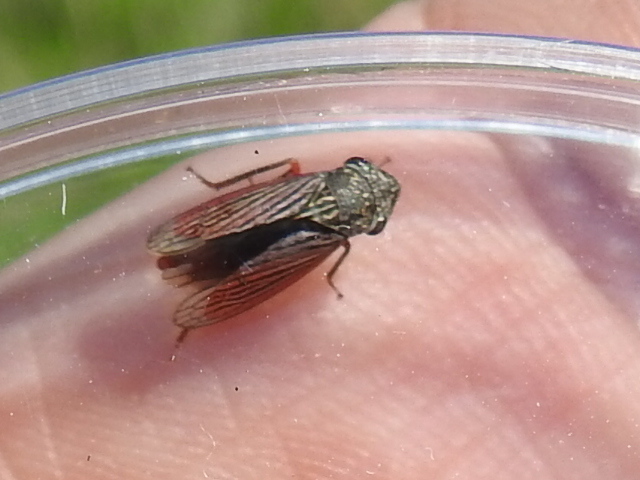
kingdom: Animalia
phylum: Arthropoda
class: Insecta
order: Hemiptera
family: Cicadellidae
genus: Cuerna
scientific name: Cuerna costalis
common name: Lateral-lined sharpshooter
